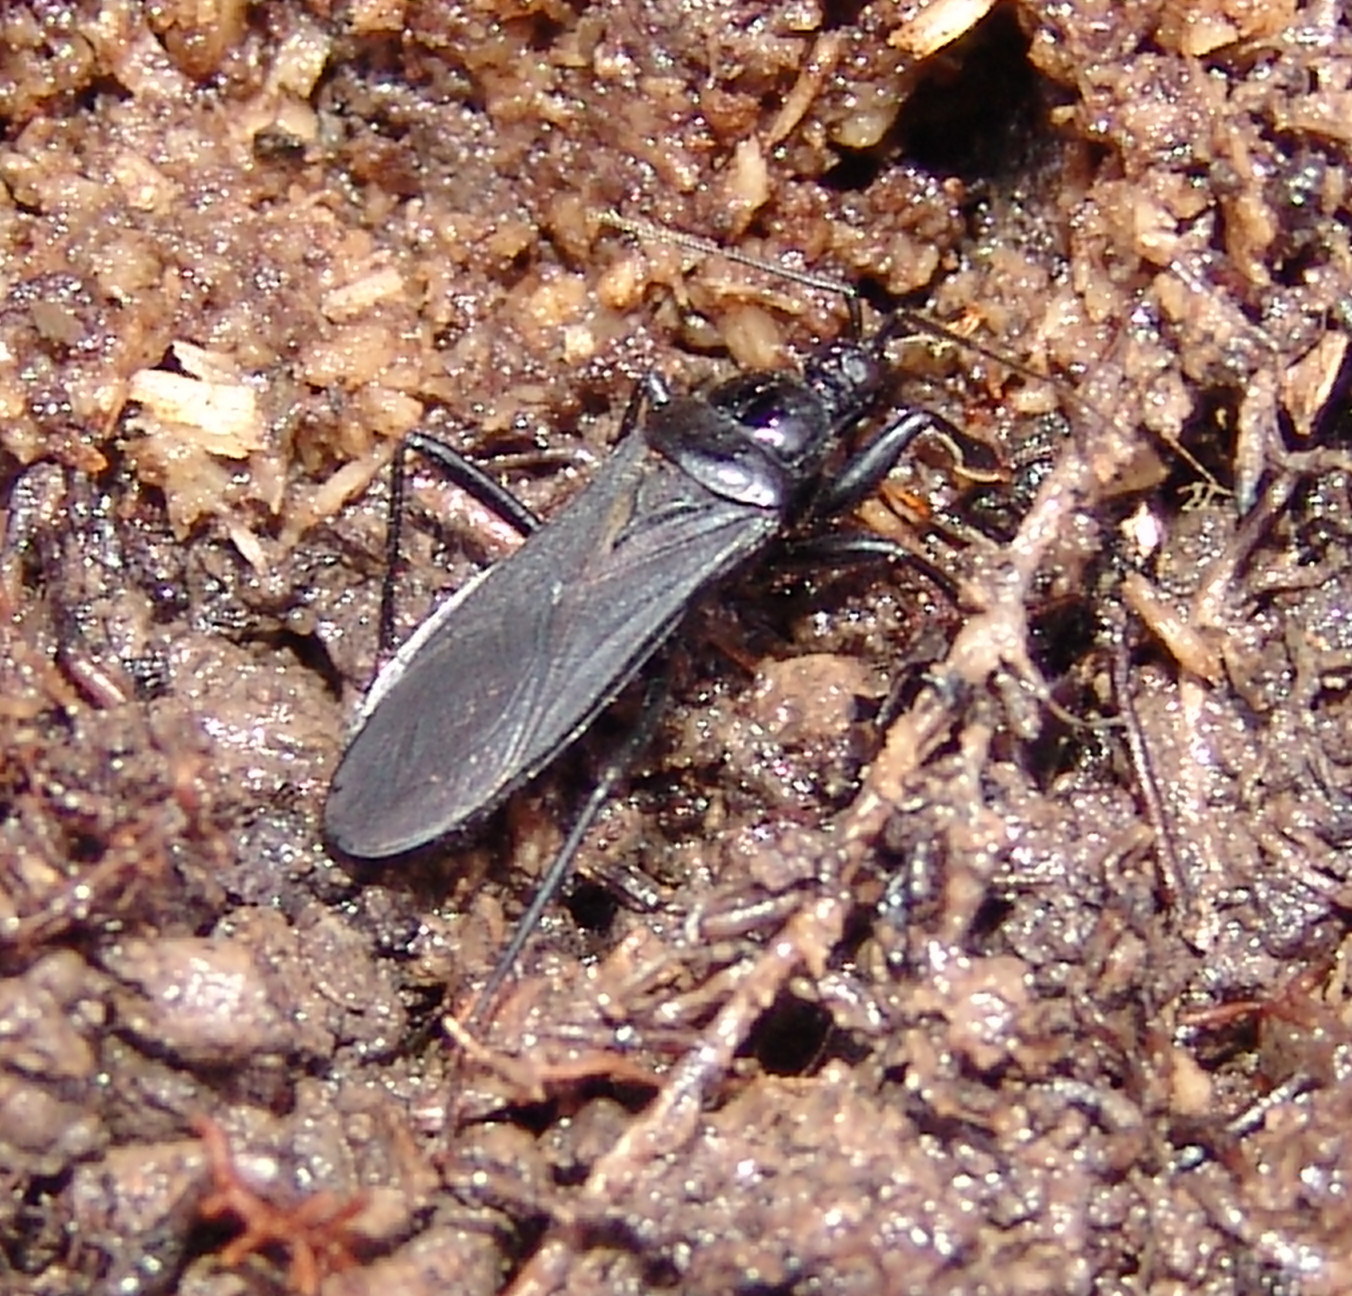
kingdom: Animalia
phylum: Arthropoda
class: Insecta
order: Hemiptera
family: Reduviidae
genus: Melanolestes
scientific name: Melanolestes picipes
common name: Assassin bug
